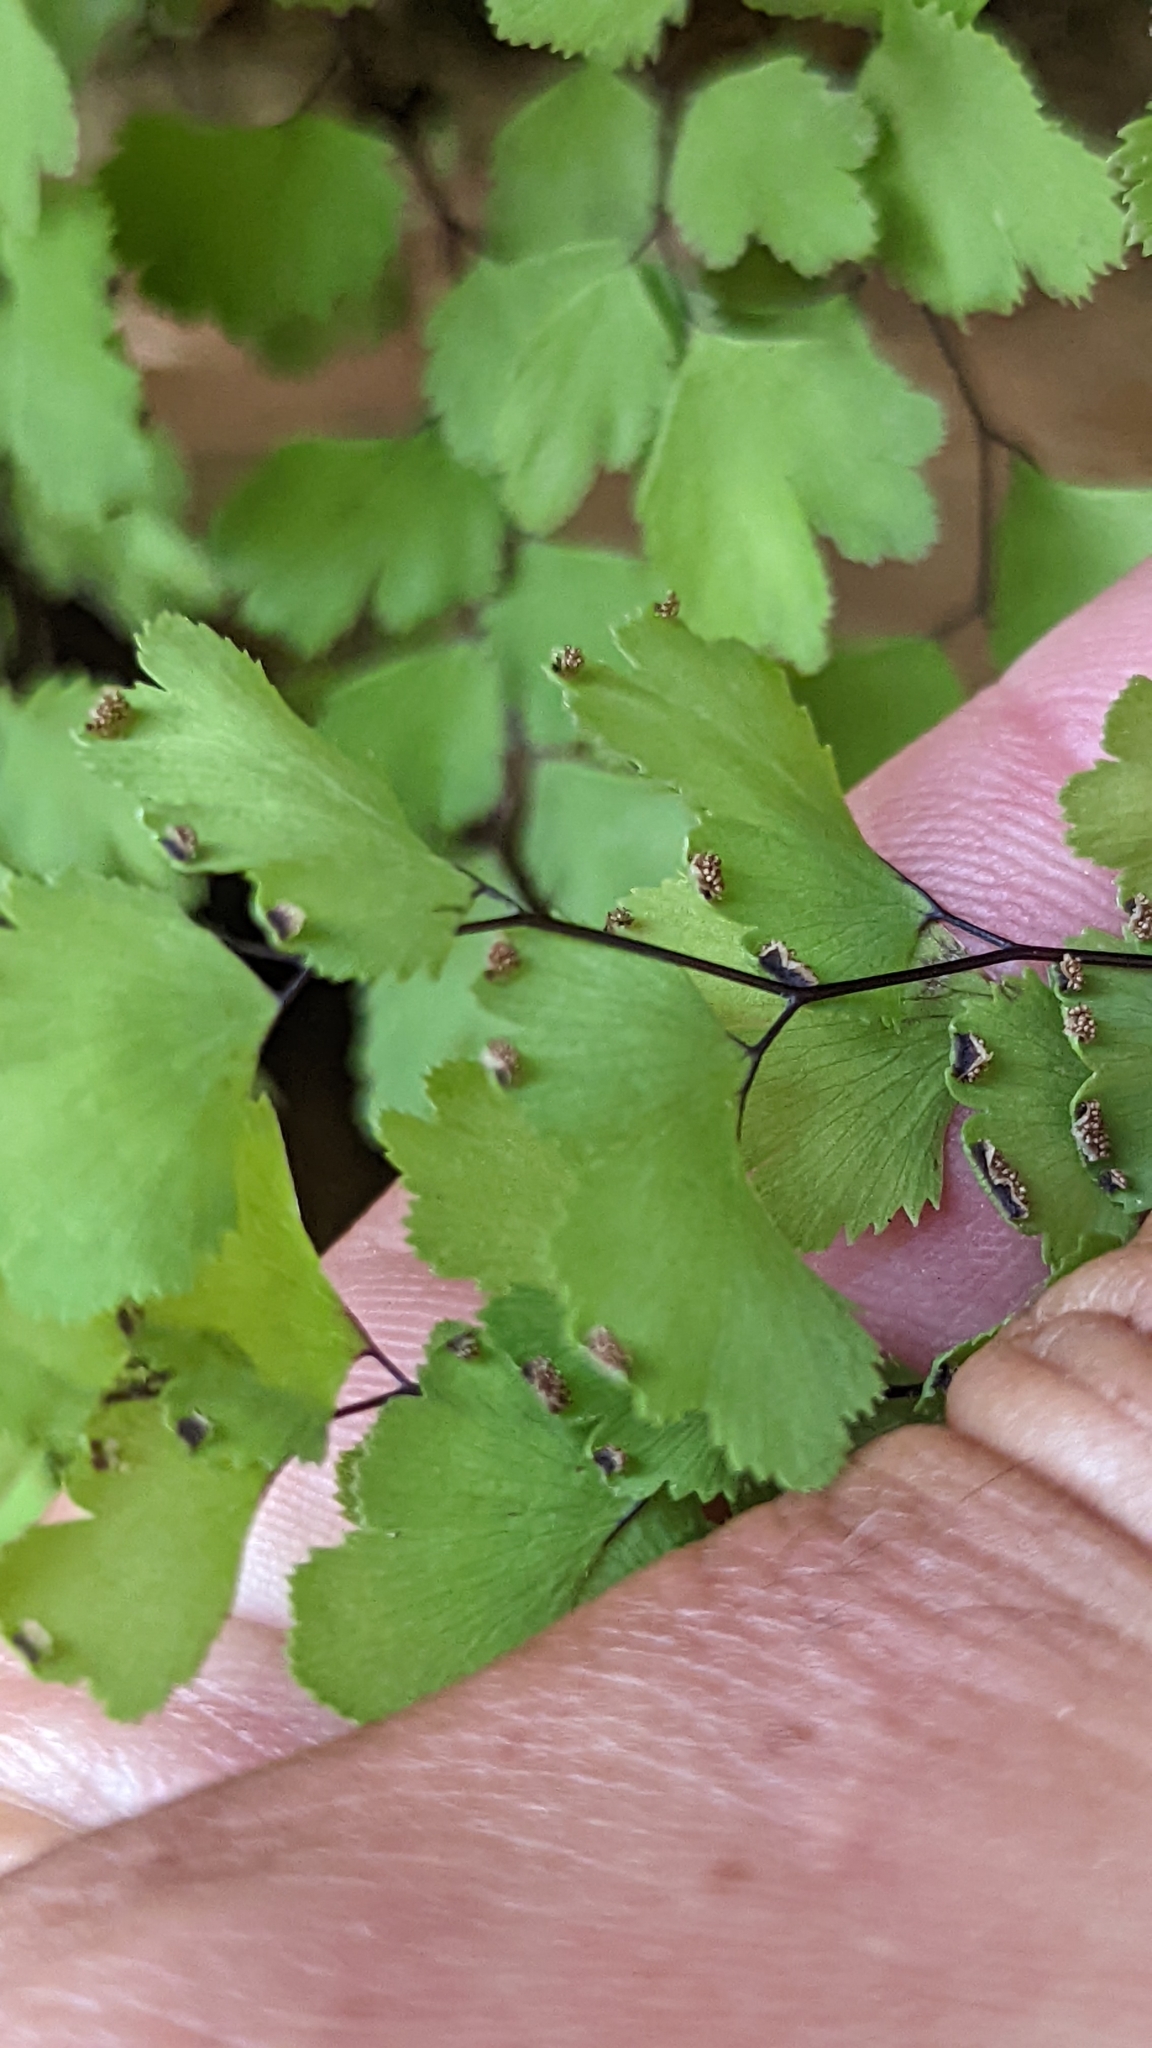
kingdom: Plantae
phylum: Tracheophyta
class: Polypodiopsida
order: Polypodiales
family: Pteridaceae
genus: Adiantum
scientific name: Adiantum capillus-veneris
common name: Maidenhair fern
